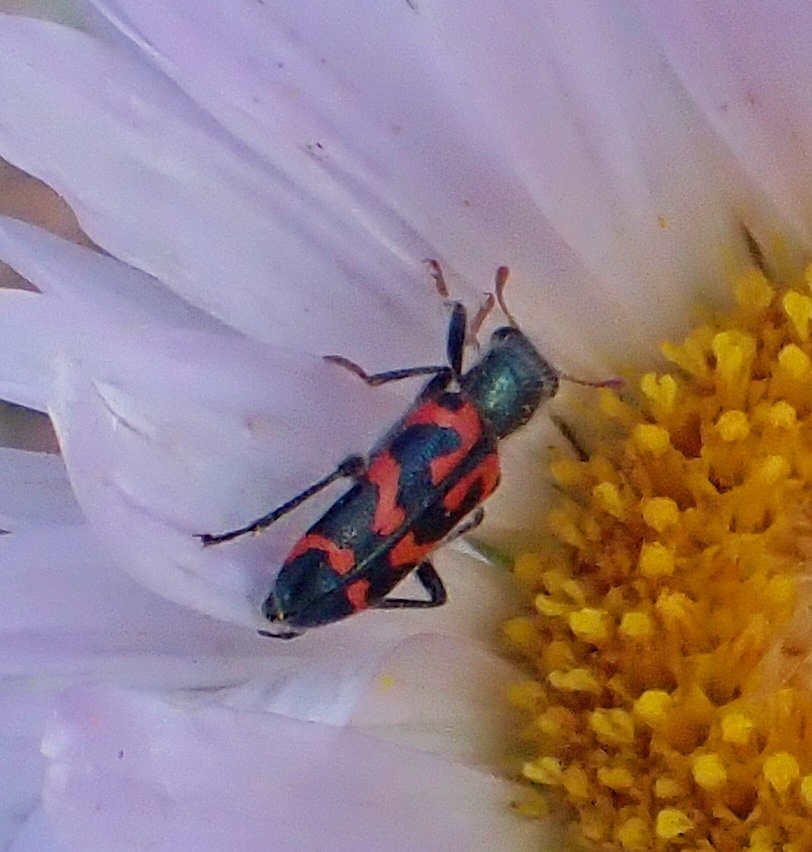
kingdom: Animalia
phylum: Arthropoda
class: Insecta
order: Coleoptera
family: Cleridae
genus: Trichodes
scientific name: Trichodes ornatus
